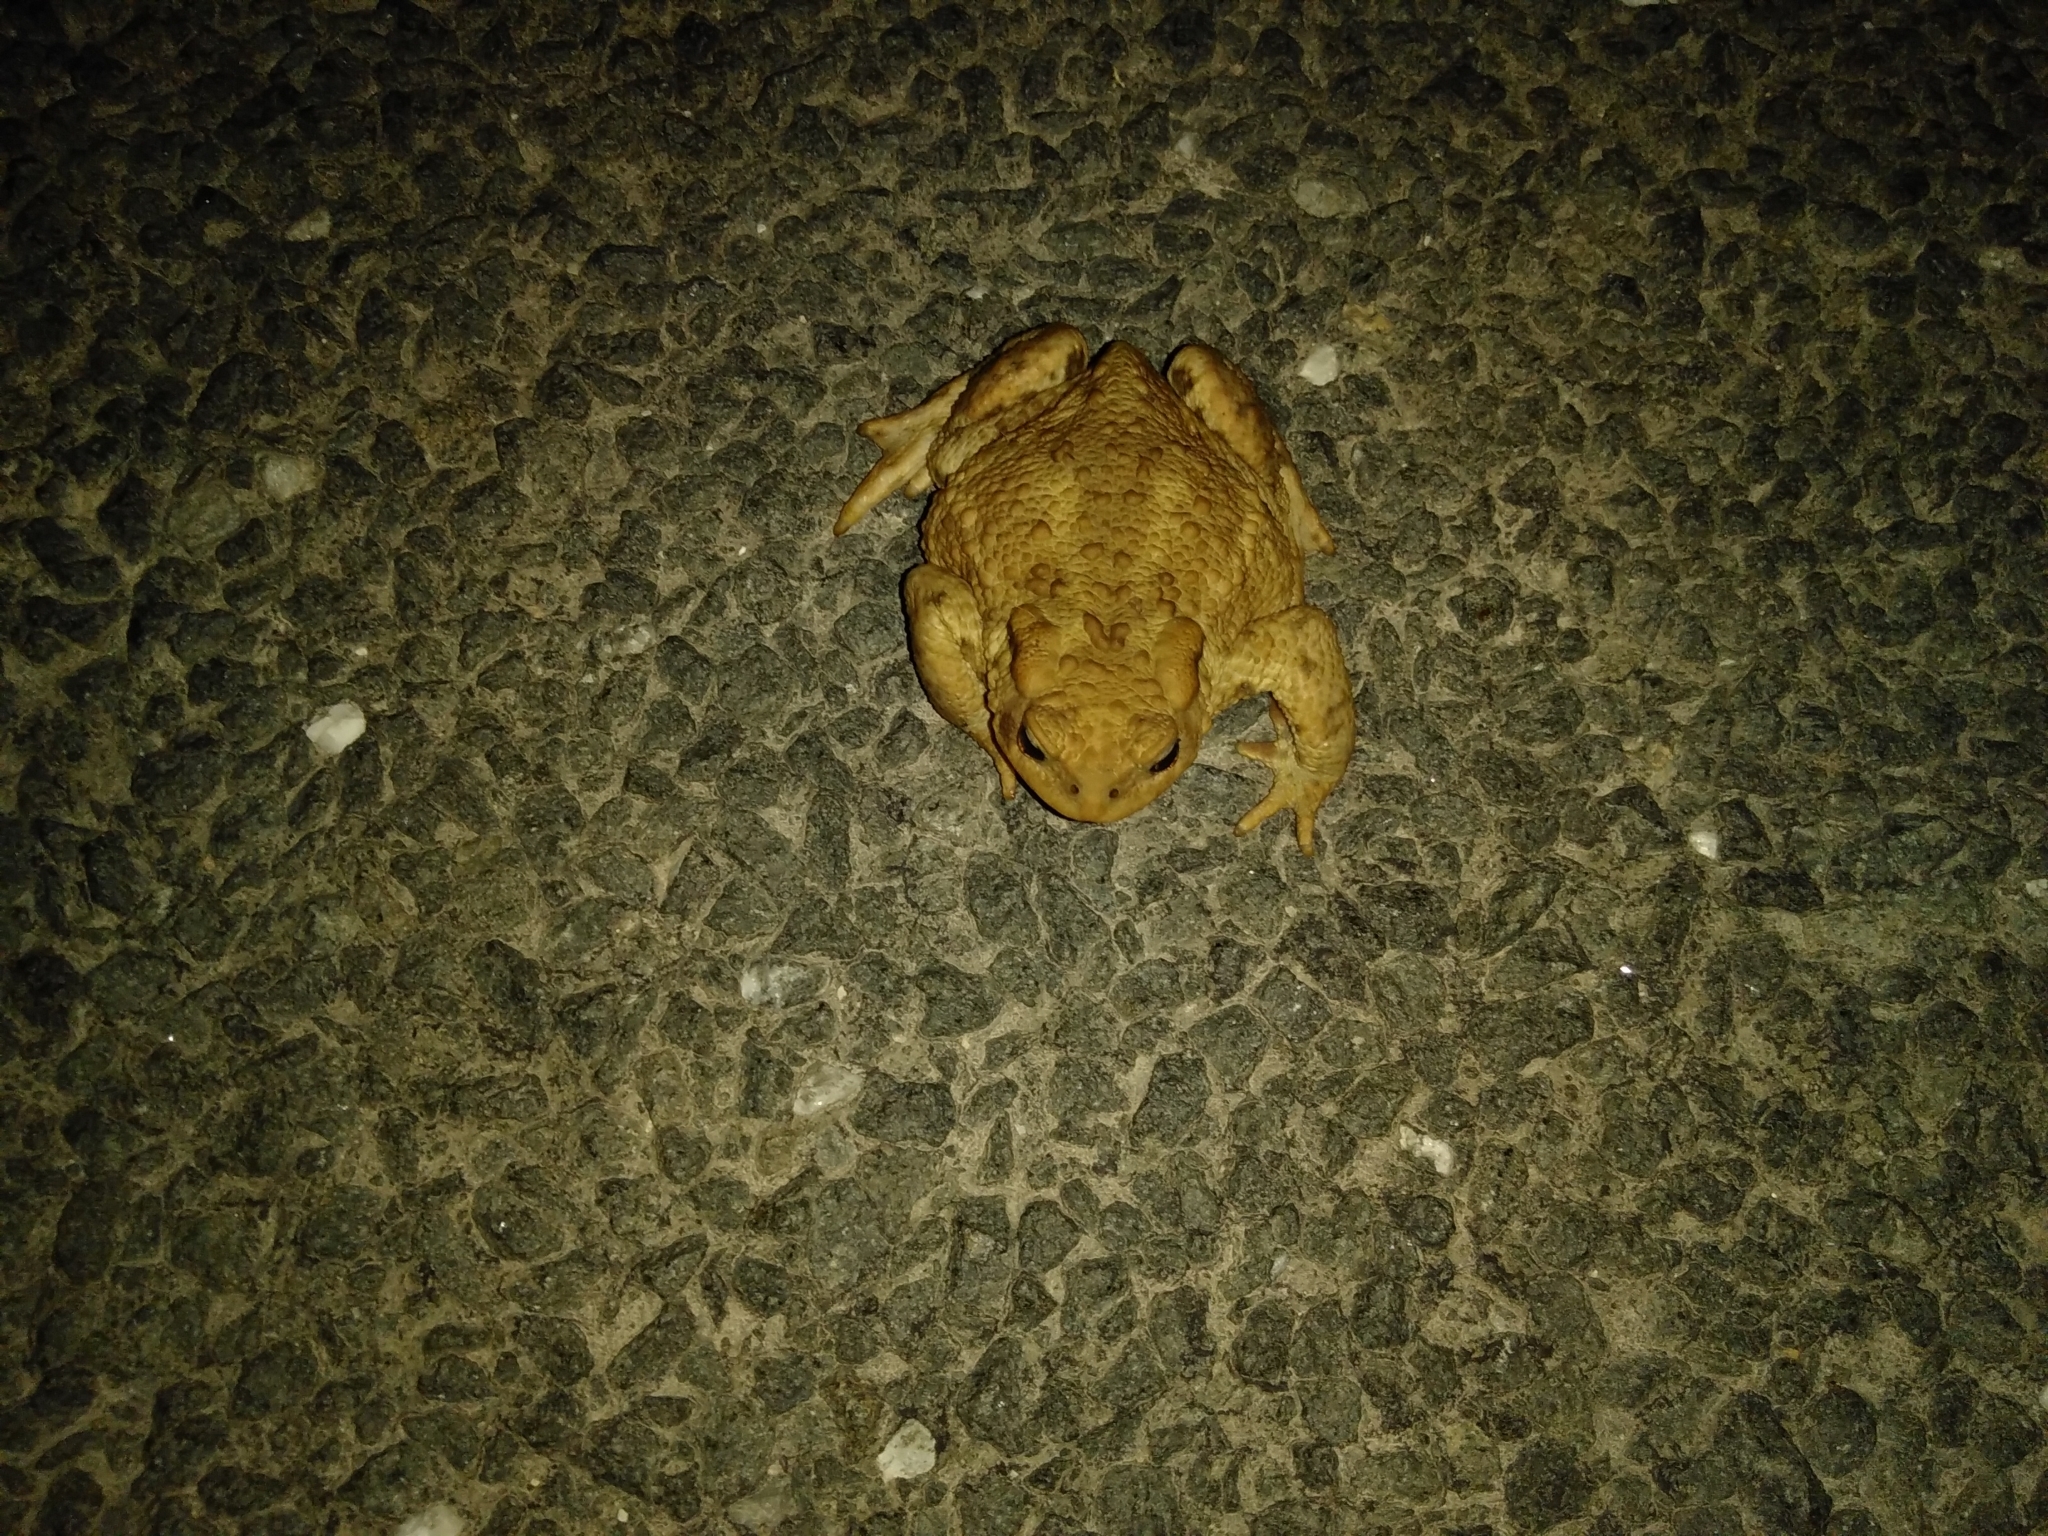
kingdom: Animalia
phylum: Chordata
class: Amphibia
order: Anura
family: Bufonidae
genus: Bufo
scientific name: Bufo bufo
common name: Common toad
